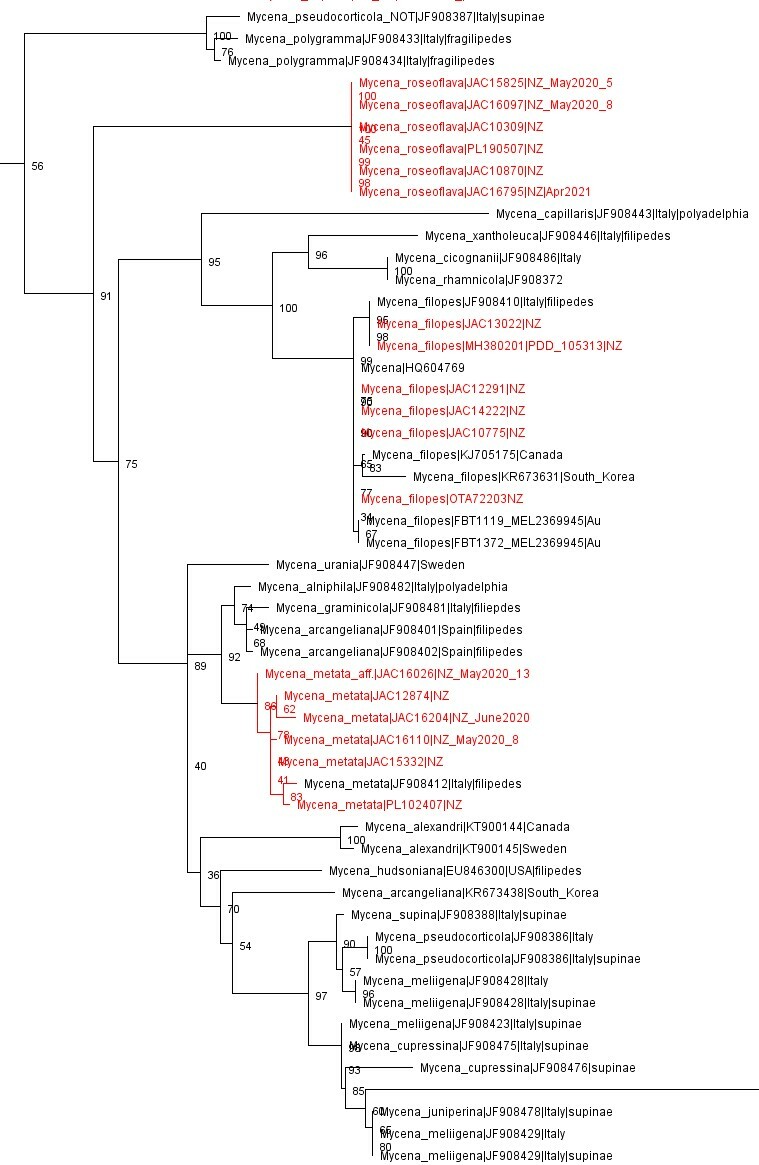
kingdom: Fungi
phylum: Basidiomycota
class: Agaricomycetes
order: Agaricales
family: Mycenaceae
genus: Mycena
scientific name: Mycena filopes
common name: Iodine bonnet
